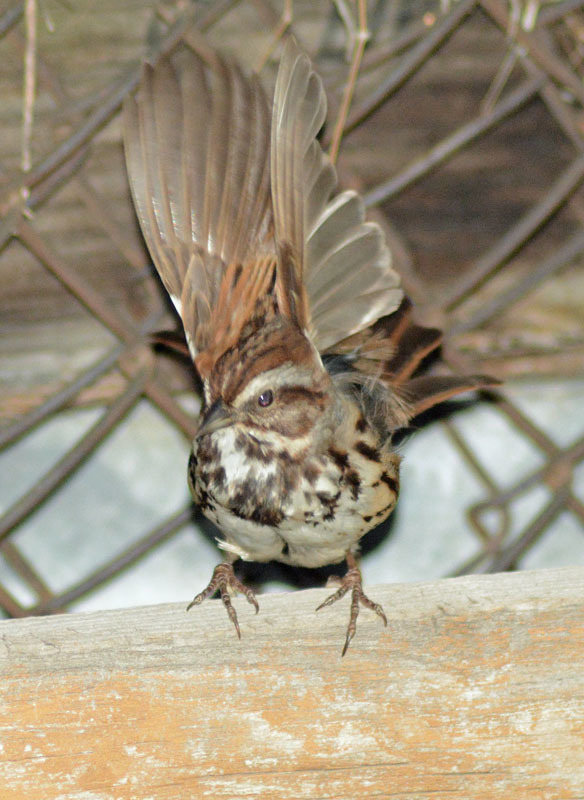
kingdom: Animalia
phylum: Chordata
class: Aves
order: Passeriformes
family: Passerellidae
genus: Melospiza
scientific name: Melospiza melodia
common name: Song sparrow
